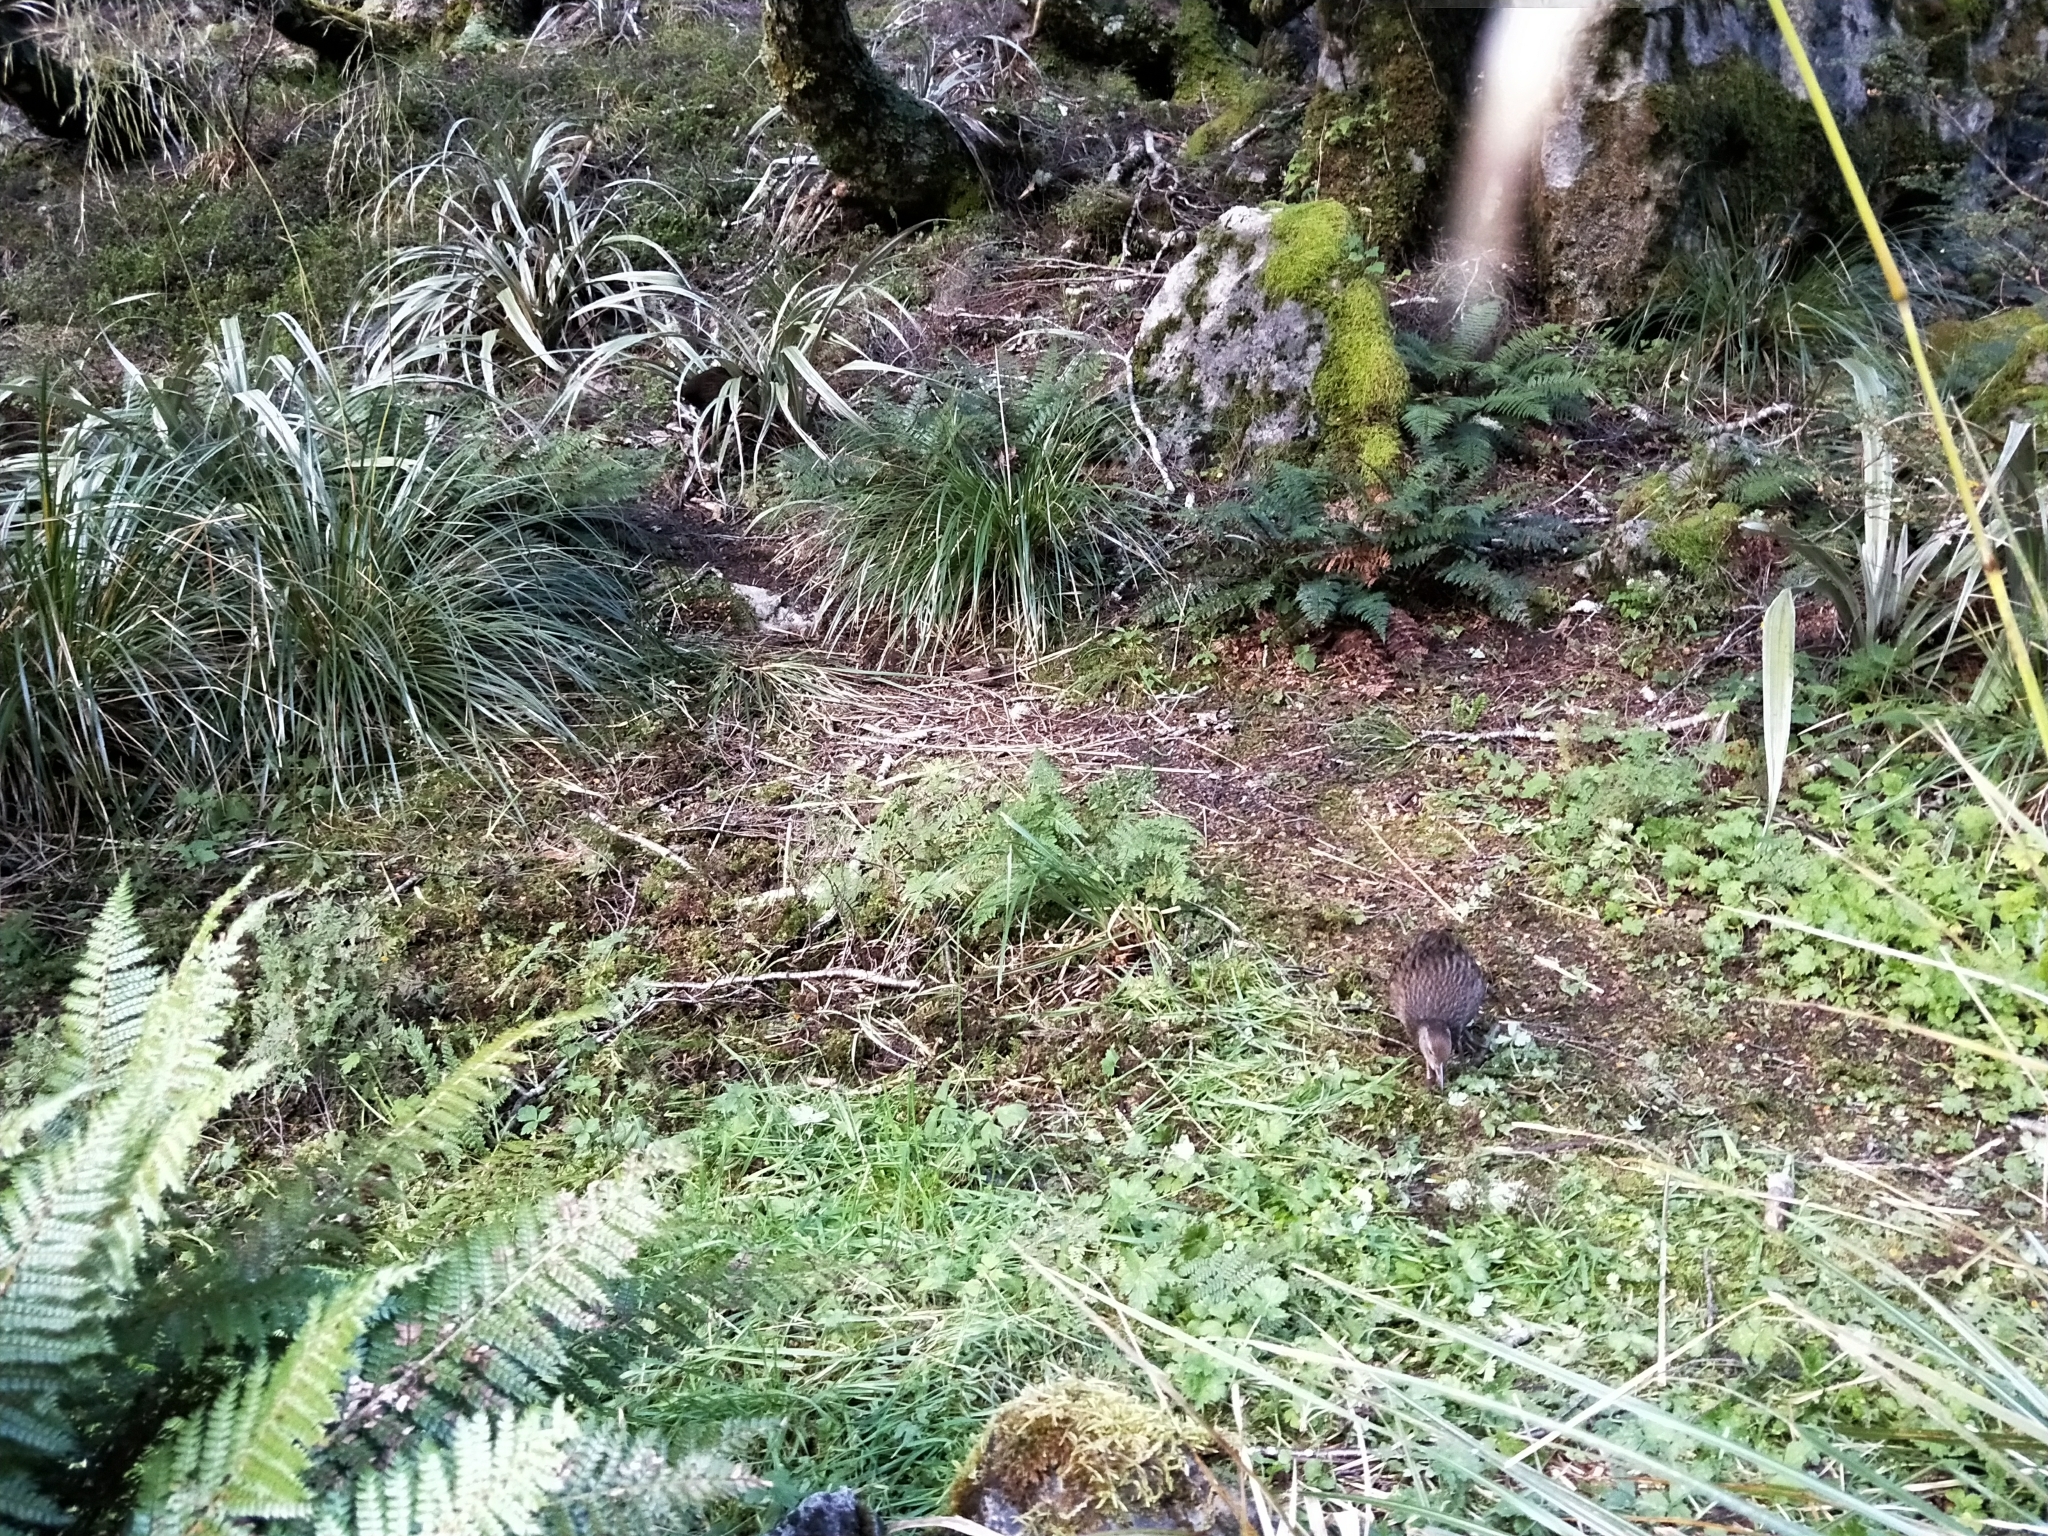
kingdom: Animalia
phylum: Chordata
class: Aves
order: Gruiformes
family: Rallidae
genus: Gallirallus
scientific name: Gallirallus australis
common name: Weka
